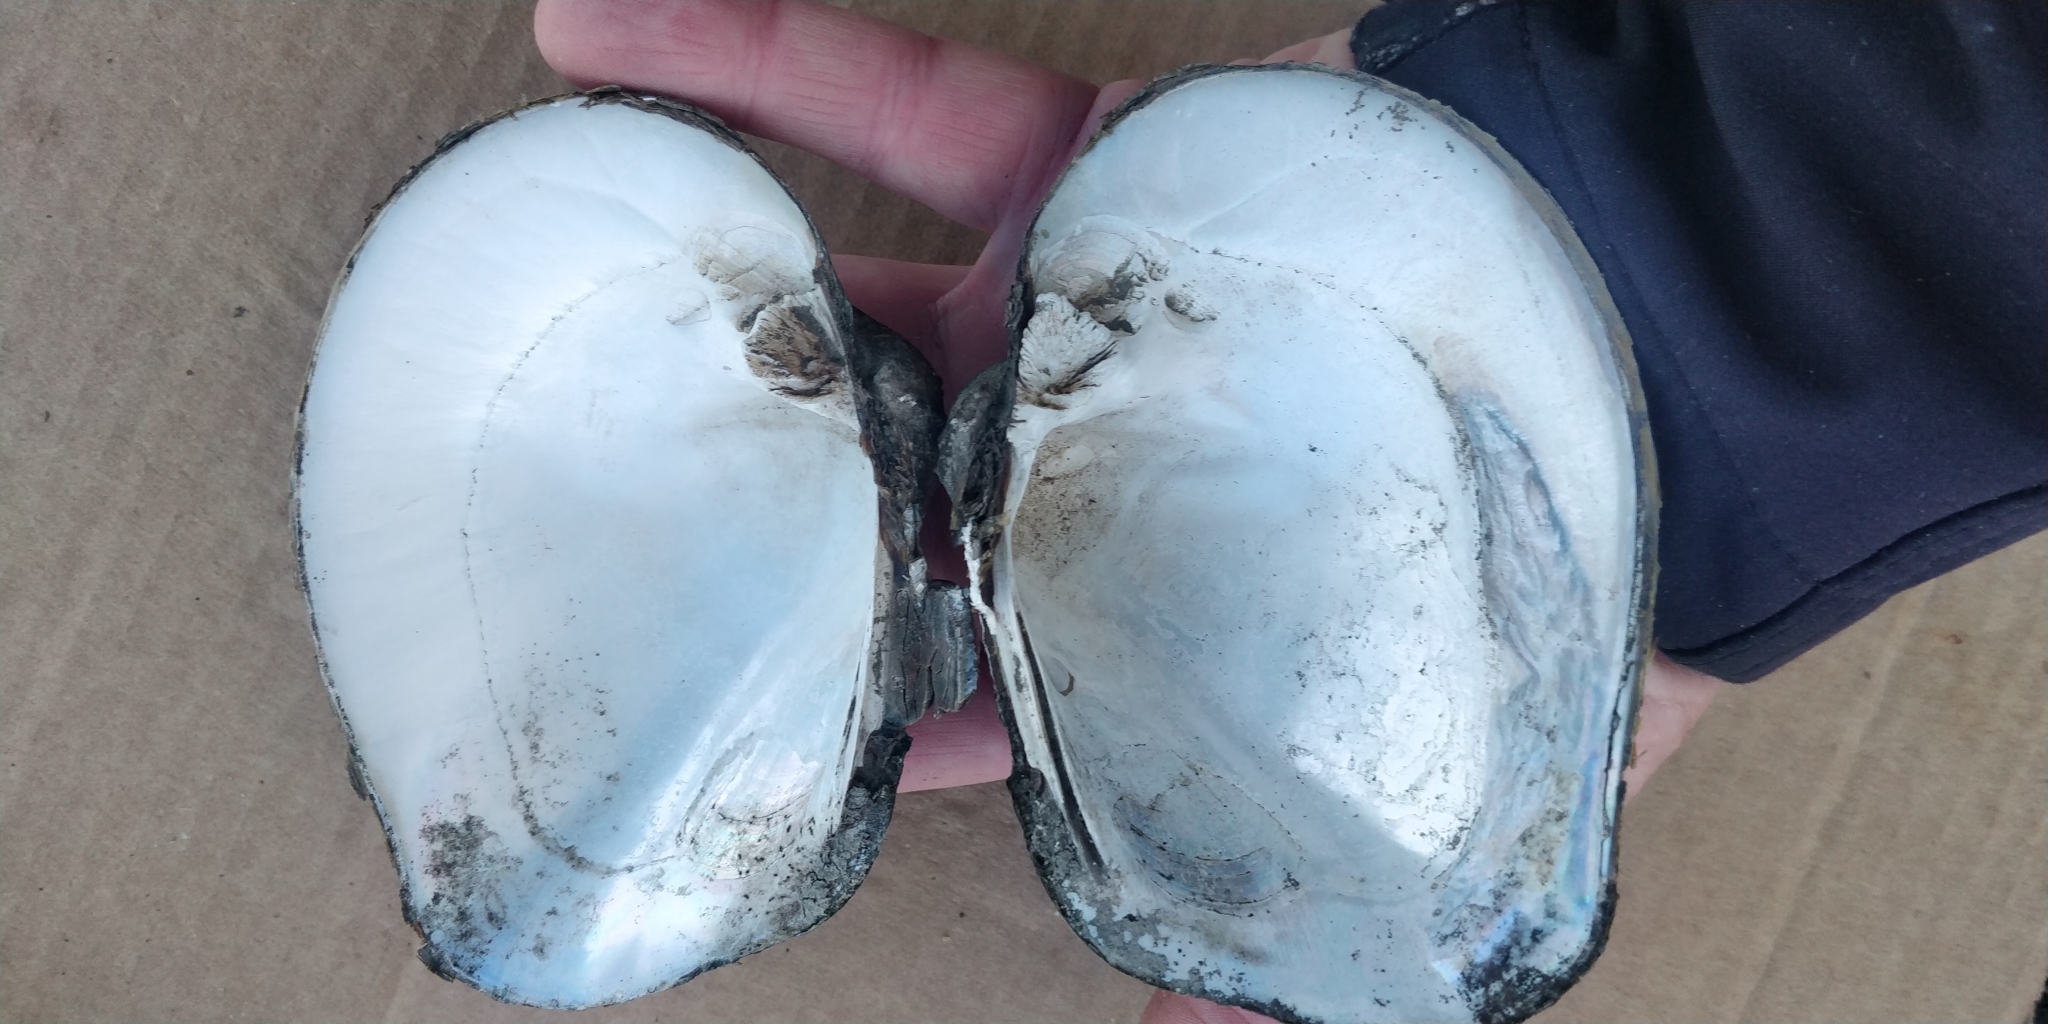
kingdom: Animalia
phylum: Mollusca
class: Bivalvia
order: Unionida
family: Unionidae
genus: Quadrula
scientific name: Quadrula quadrula
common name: Mapleleaf
